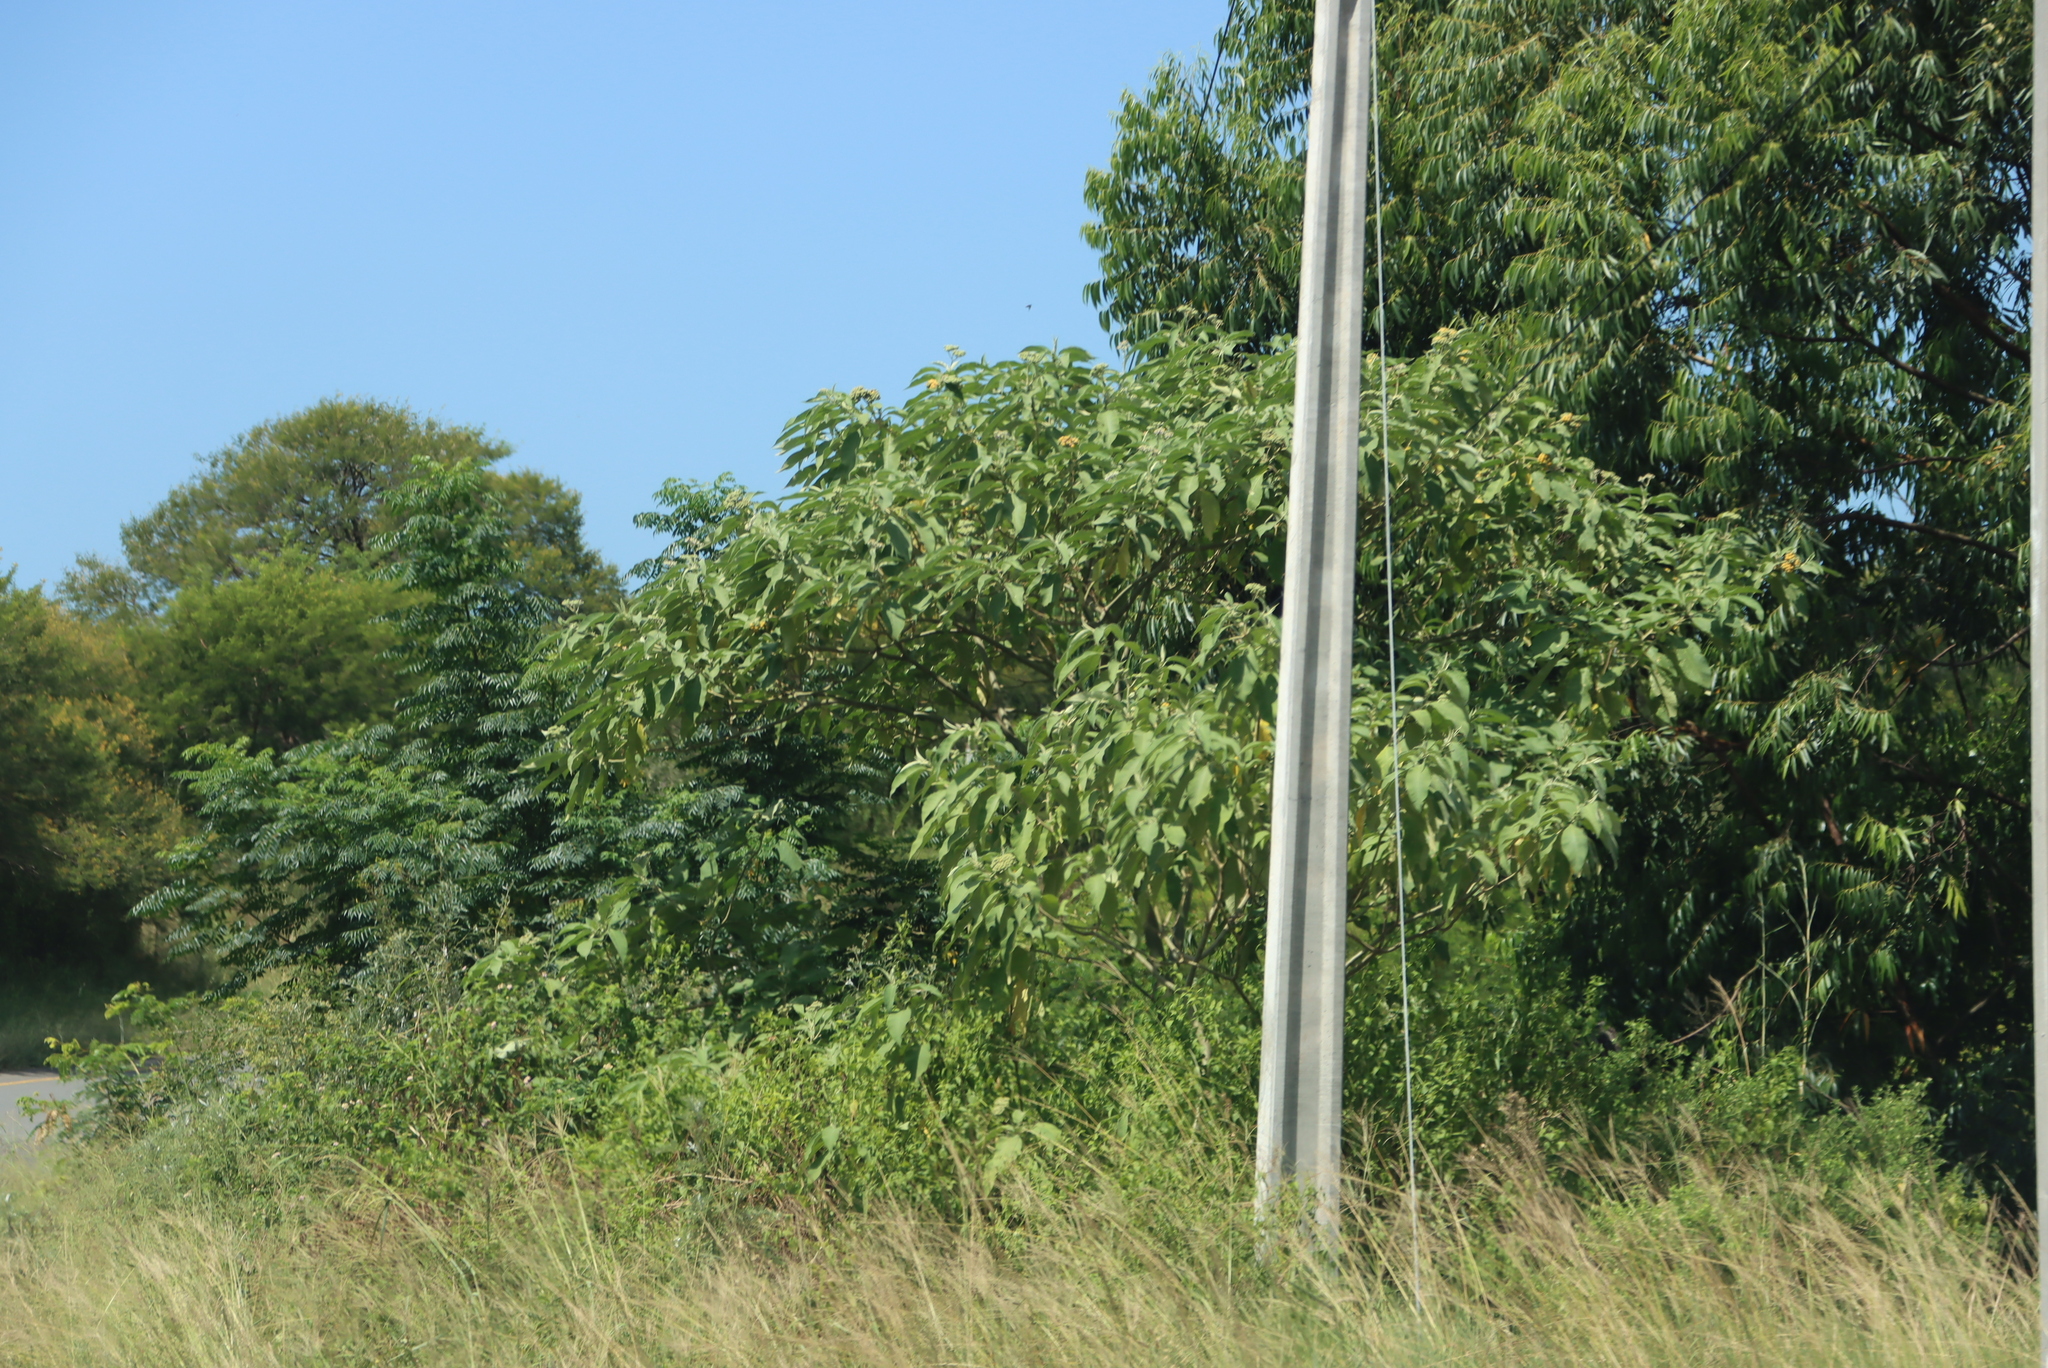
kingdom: Plantae
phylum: Tracheophyta
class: Magnoliopsida
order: Solanales
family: Solanaceae
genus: Solanum
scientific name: Solanum mauritianum
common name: Earleaf nightshade
